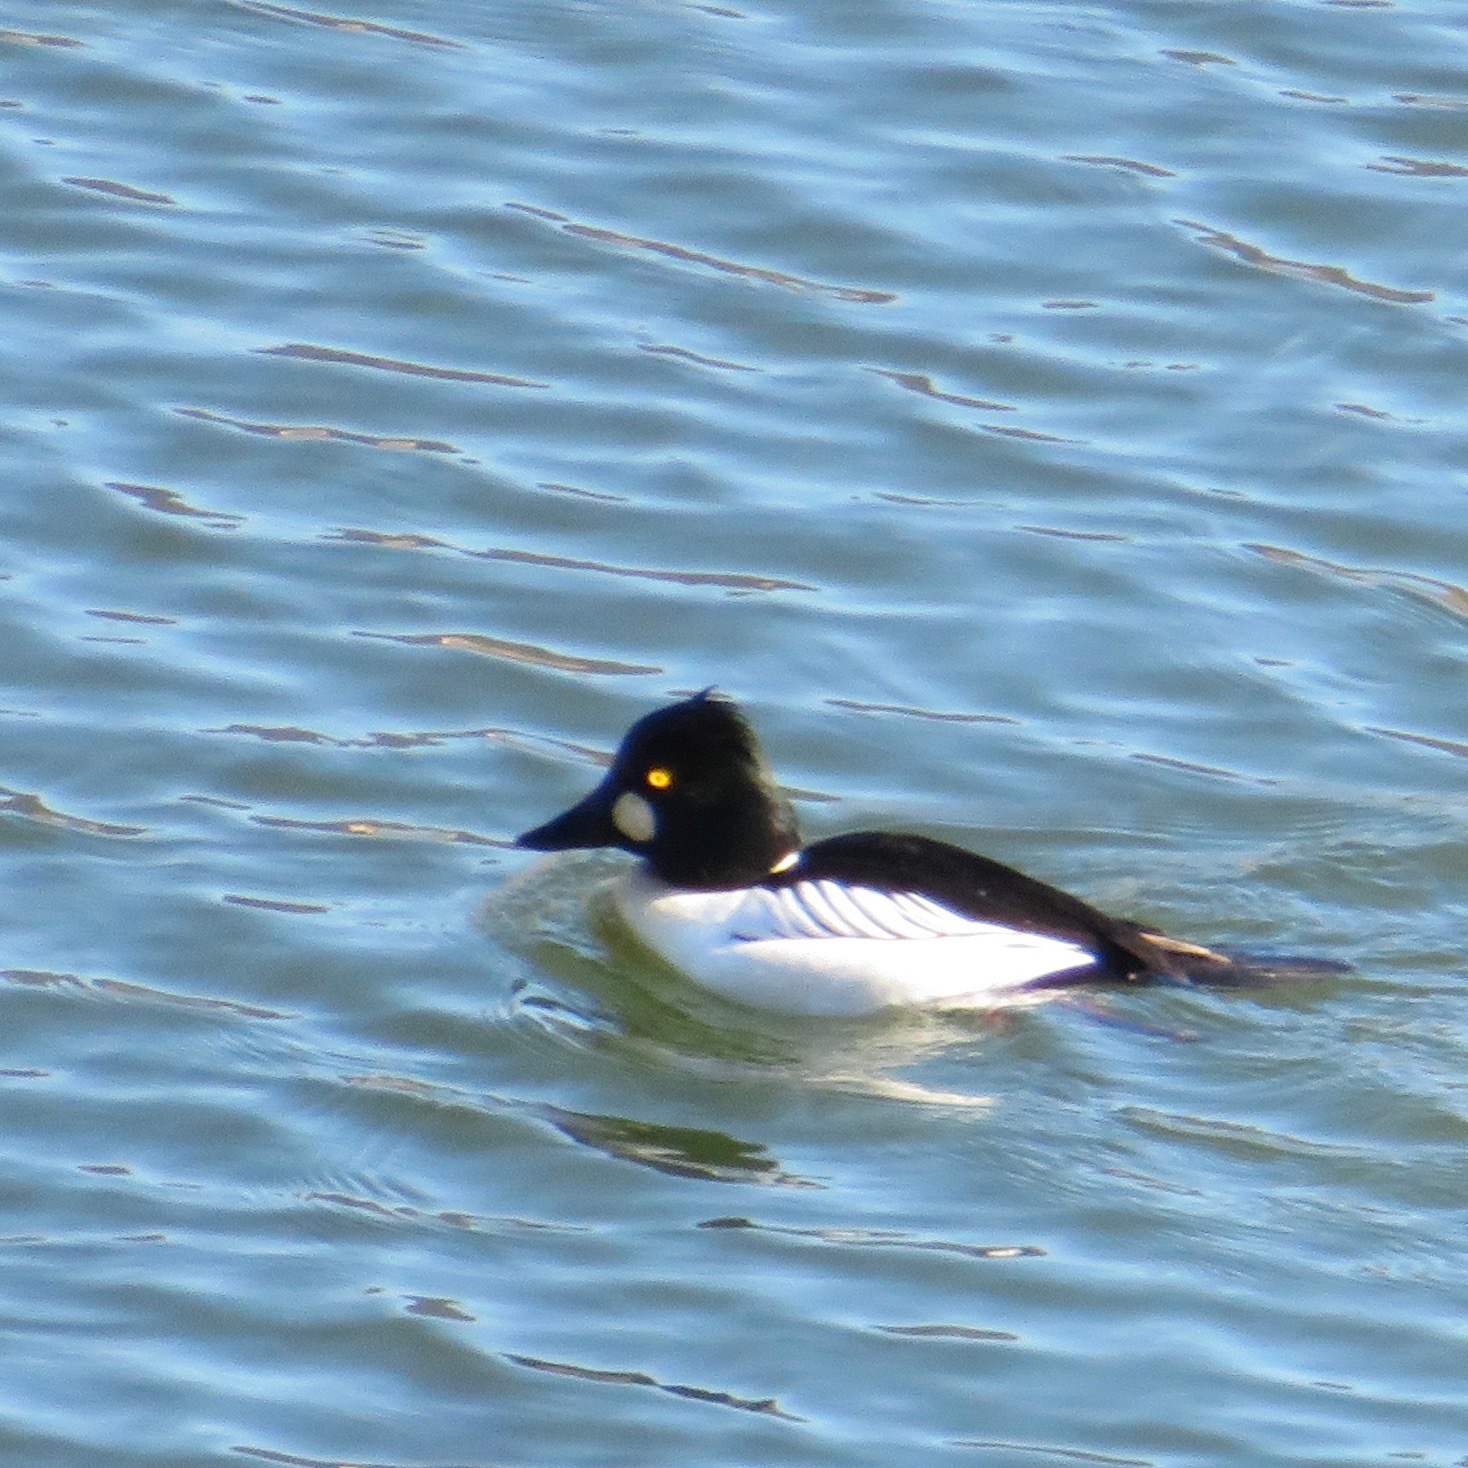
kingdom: Animalia
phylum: Chordata
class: Aves
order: Anseriformes
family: Anatidae
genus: Bucephala
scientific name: Bucephala clangula
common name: Common goldeneye
